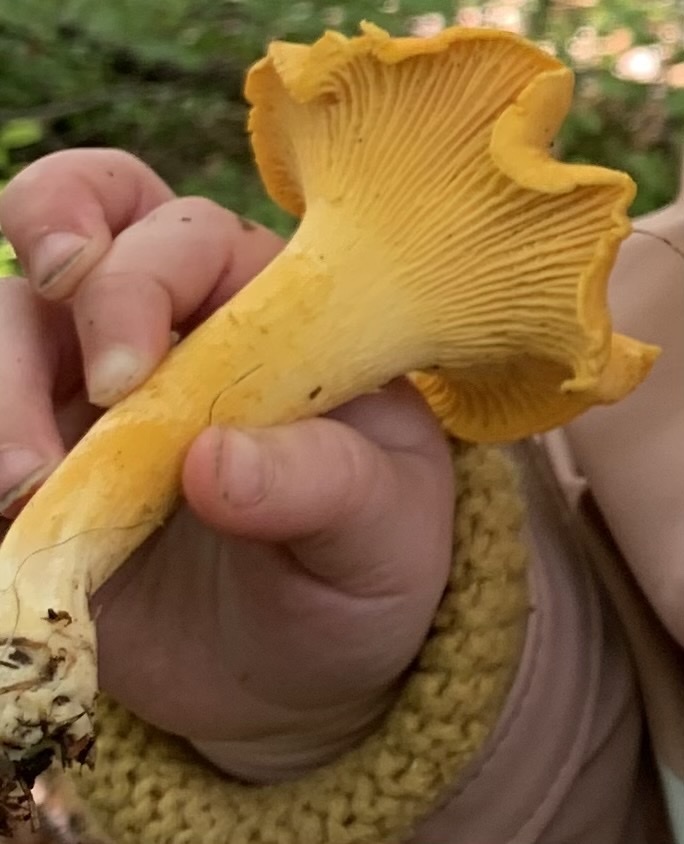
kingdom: Fungi
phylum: Basidiomycota
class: Agaricomycetes
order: Cantharellales
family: Hydnaceae
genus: Cantharellus
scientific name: Cantharellus cibarius
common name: Chanterelle
